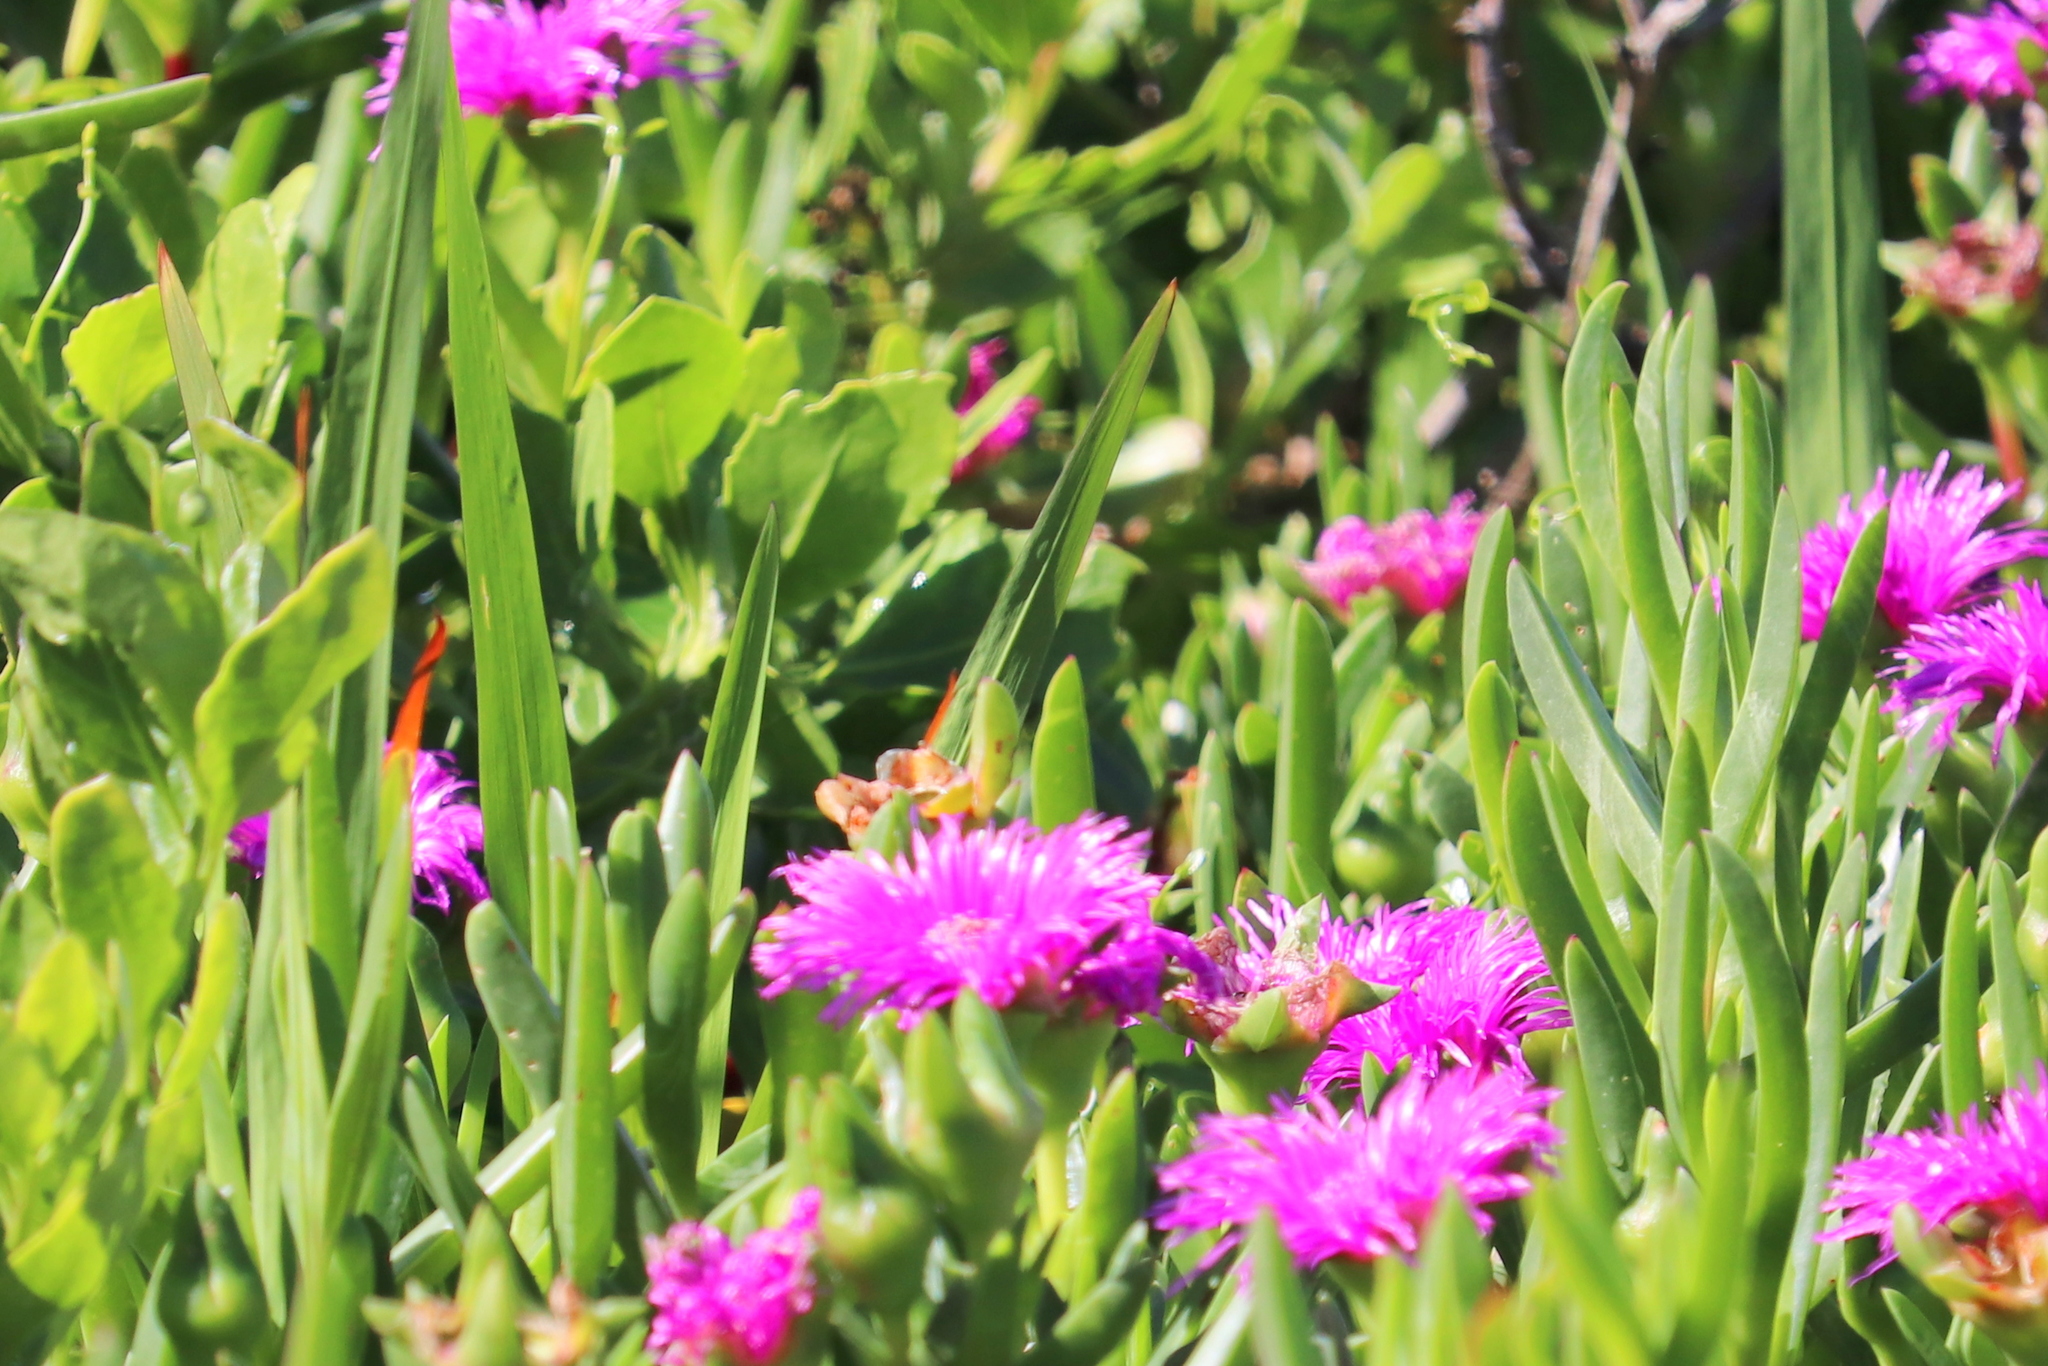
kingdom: Plantae
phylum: Tracheophyta
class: Magnoliopsida
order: Caryophyllales
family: Aizoaceae
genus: Carpobrotus
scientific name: Carpobrotus deliciosus
